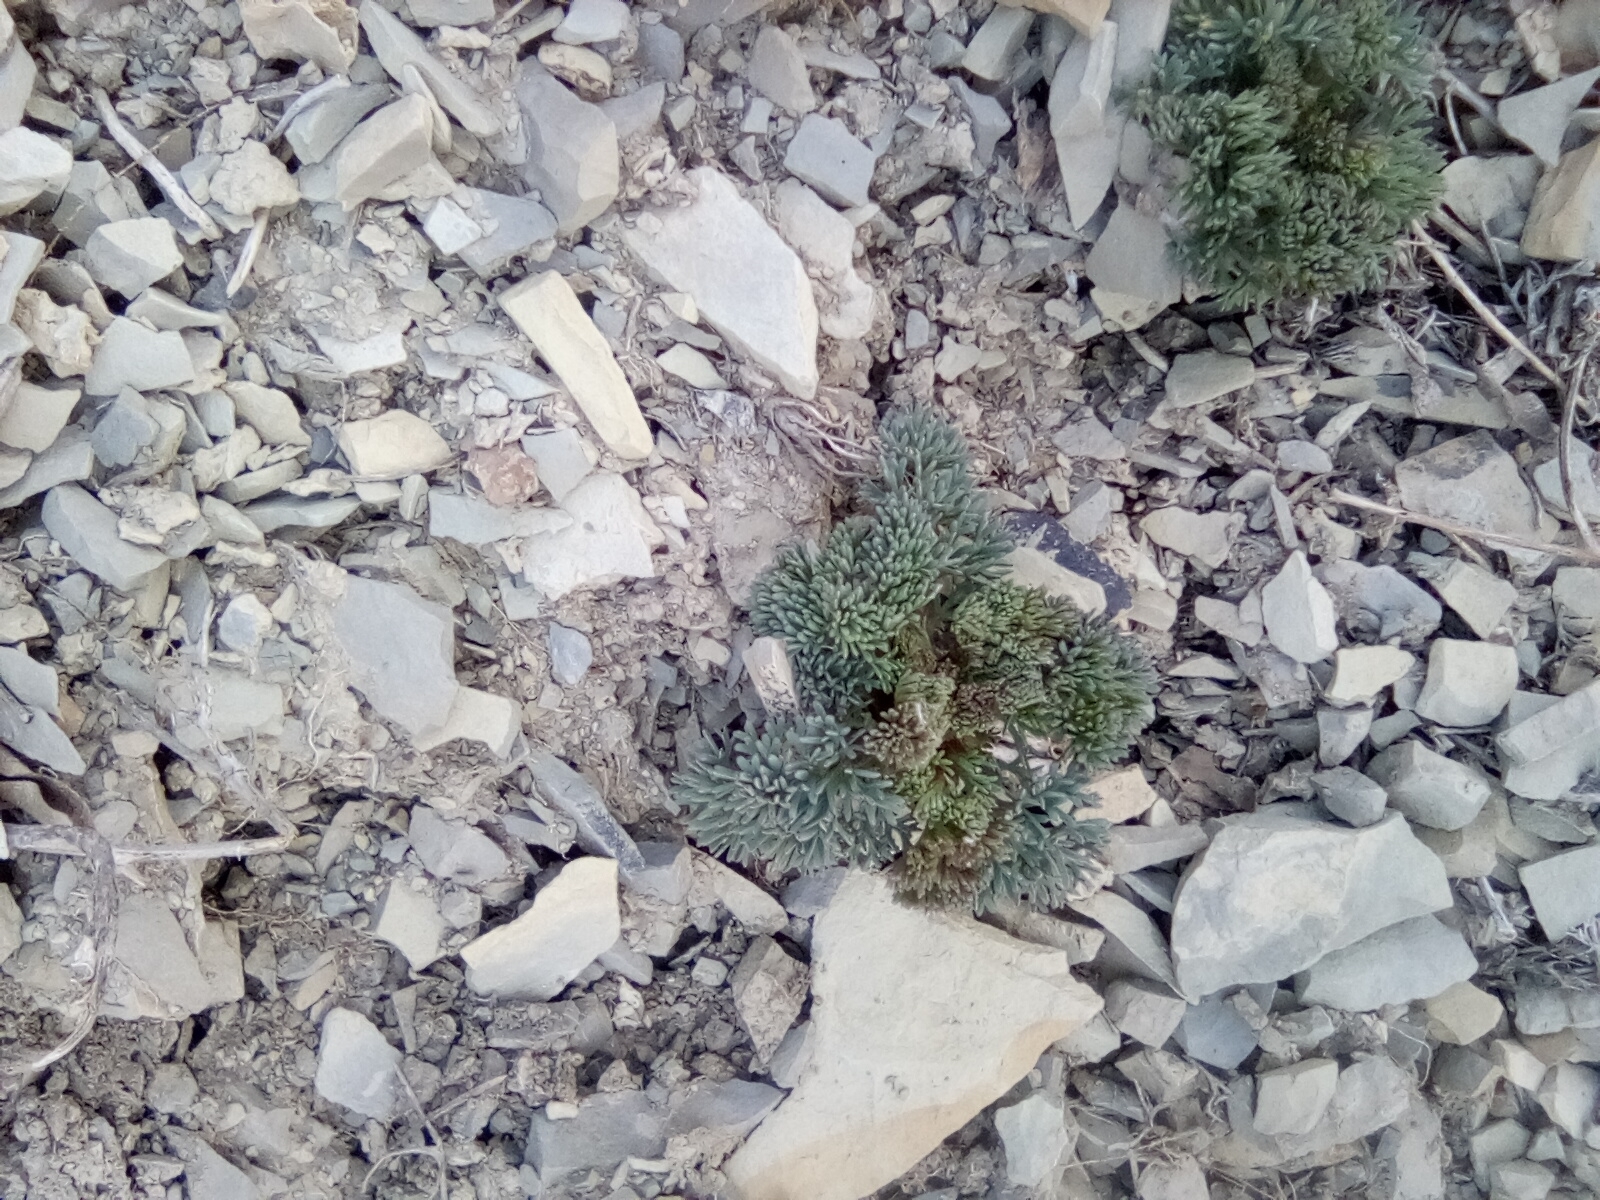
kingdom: Plantae
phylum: Tracheophyta
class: Magnoliopsida
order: Apiales
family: Apiaceae
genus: Seseli
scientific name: Seseli ponticum
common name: Pontic seseli
